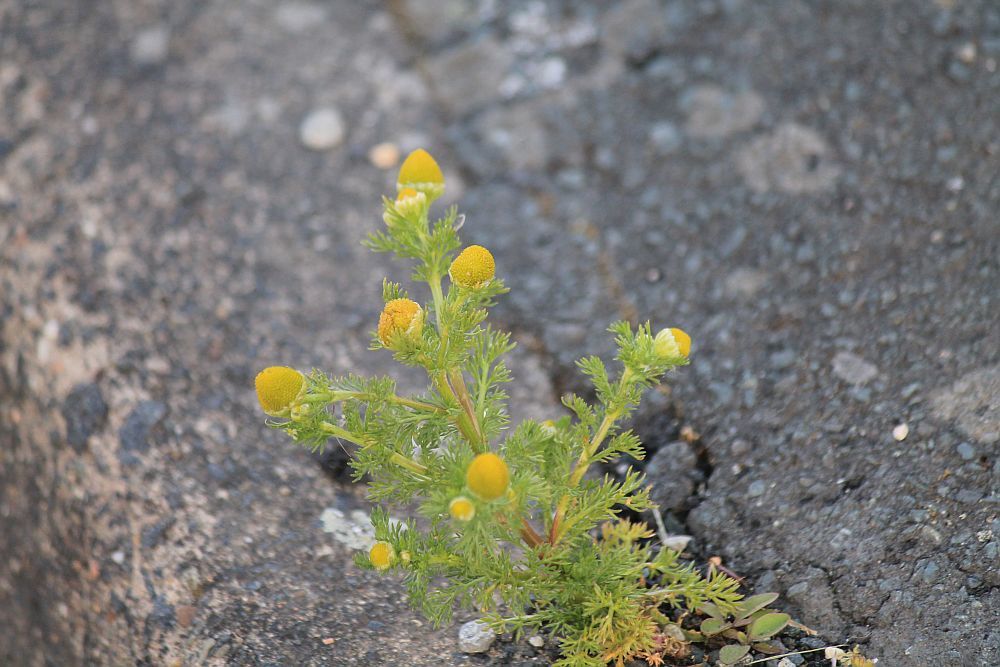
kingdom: Plantae
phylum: Tracheophyta
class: Magnoliopsida
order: Asterales
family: Asteraceae
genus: Matricaria
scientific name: Matricaria discoidea
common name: Disc mayweed
